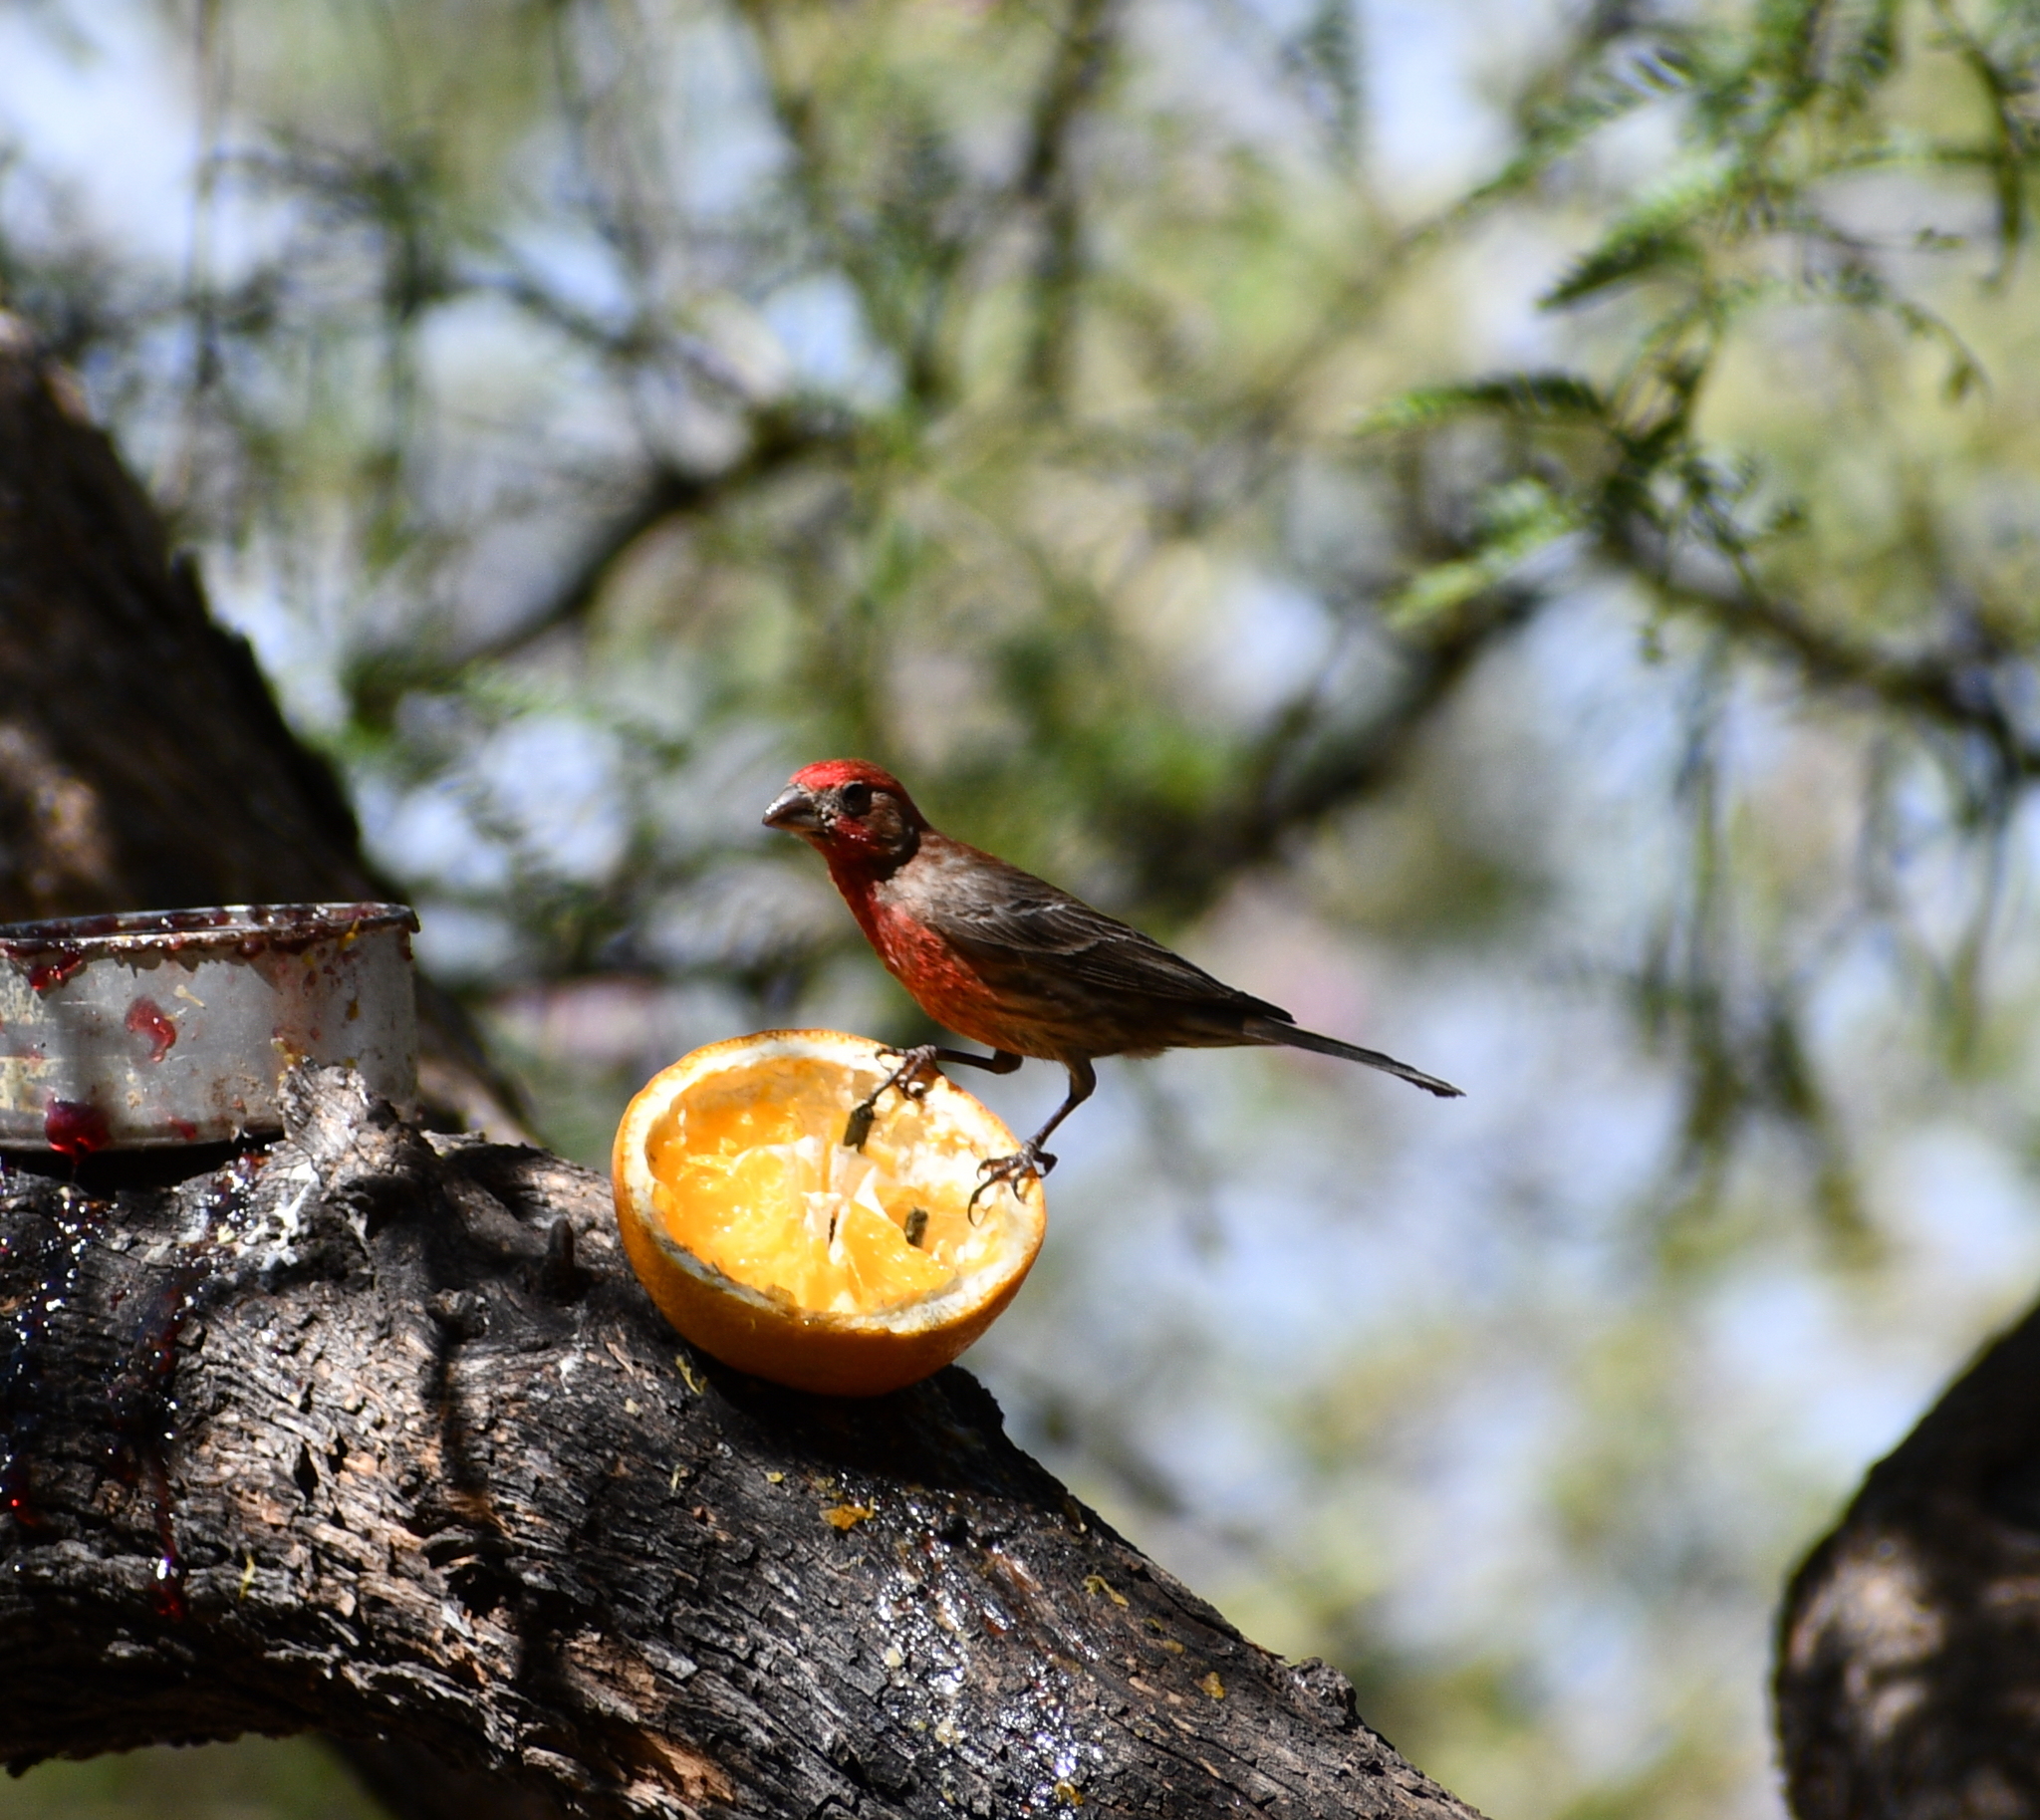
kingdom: Animalia
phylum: Chordata
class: Aves
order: Passeriformes
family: Fringillidae
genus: Haemorhous
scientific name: Haemorhous mexicanus
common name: House finch
